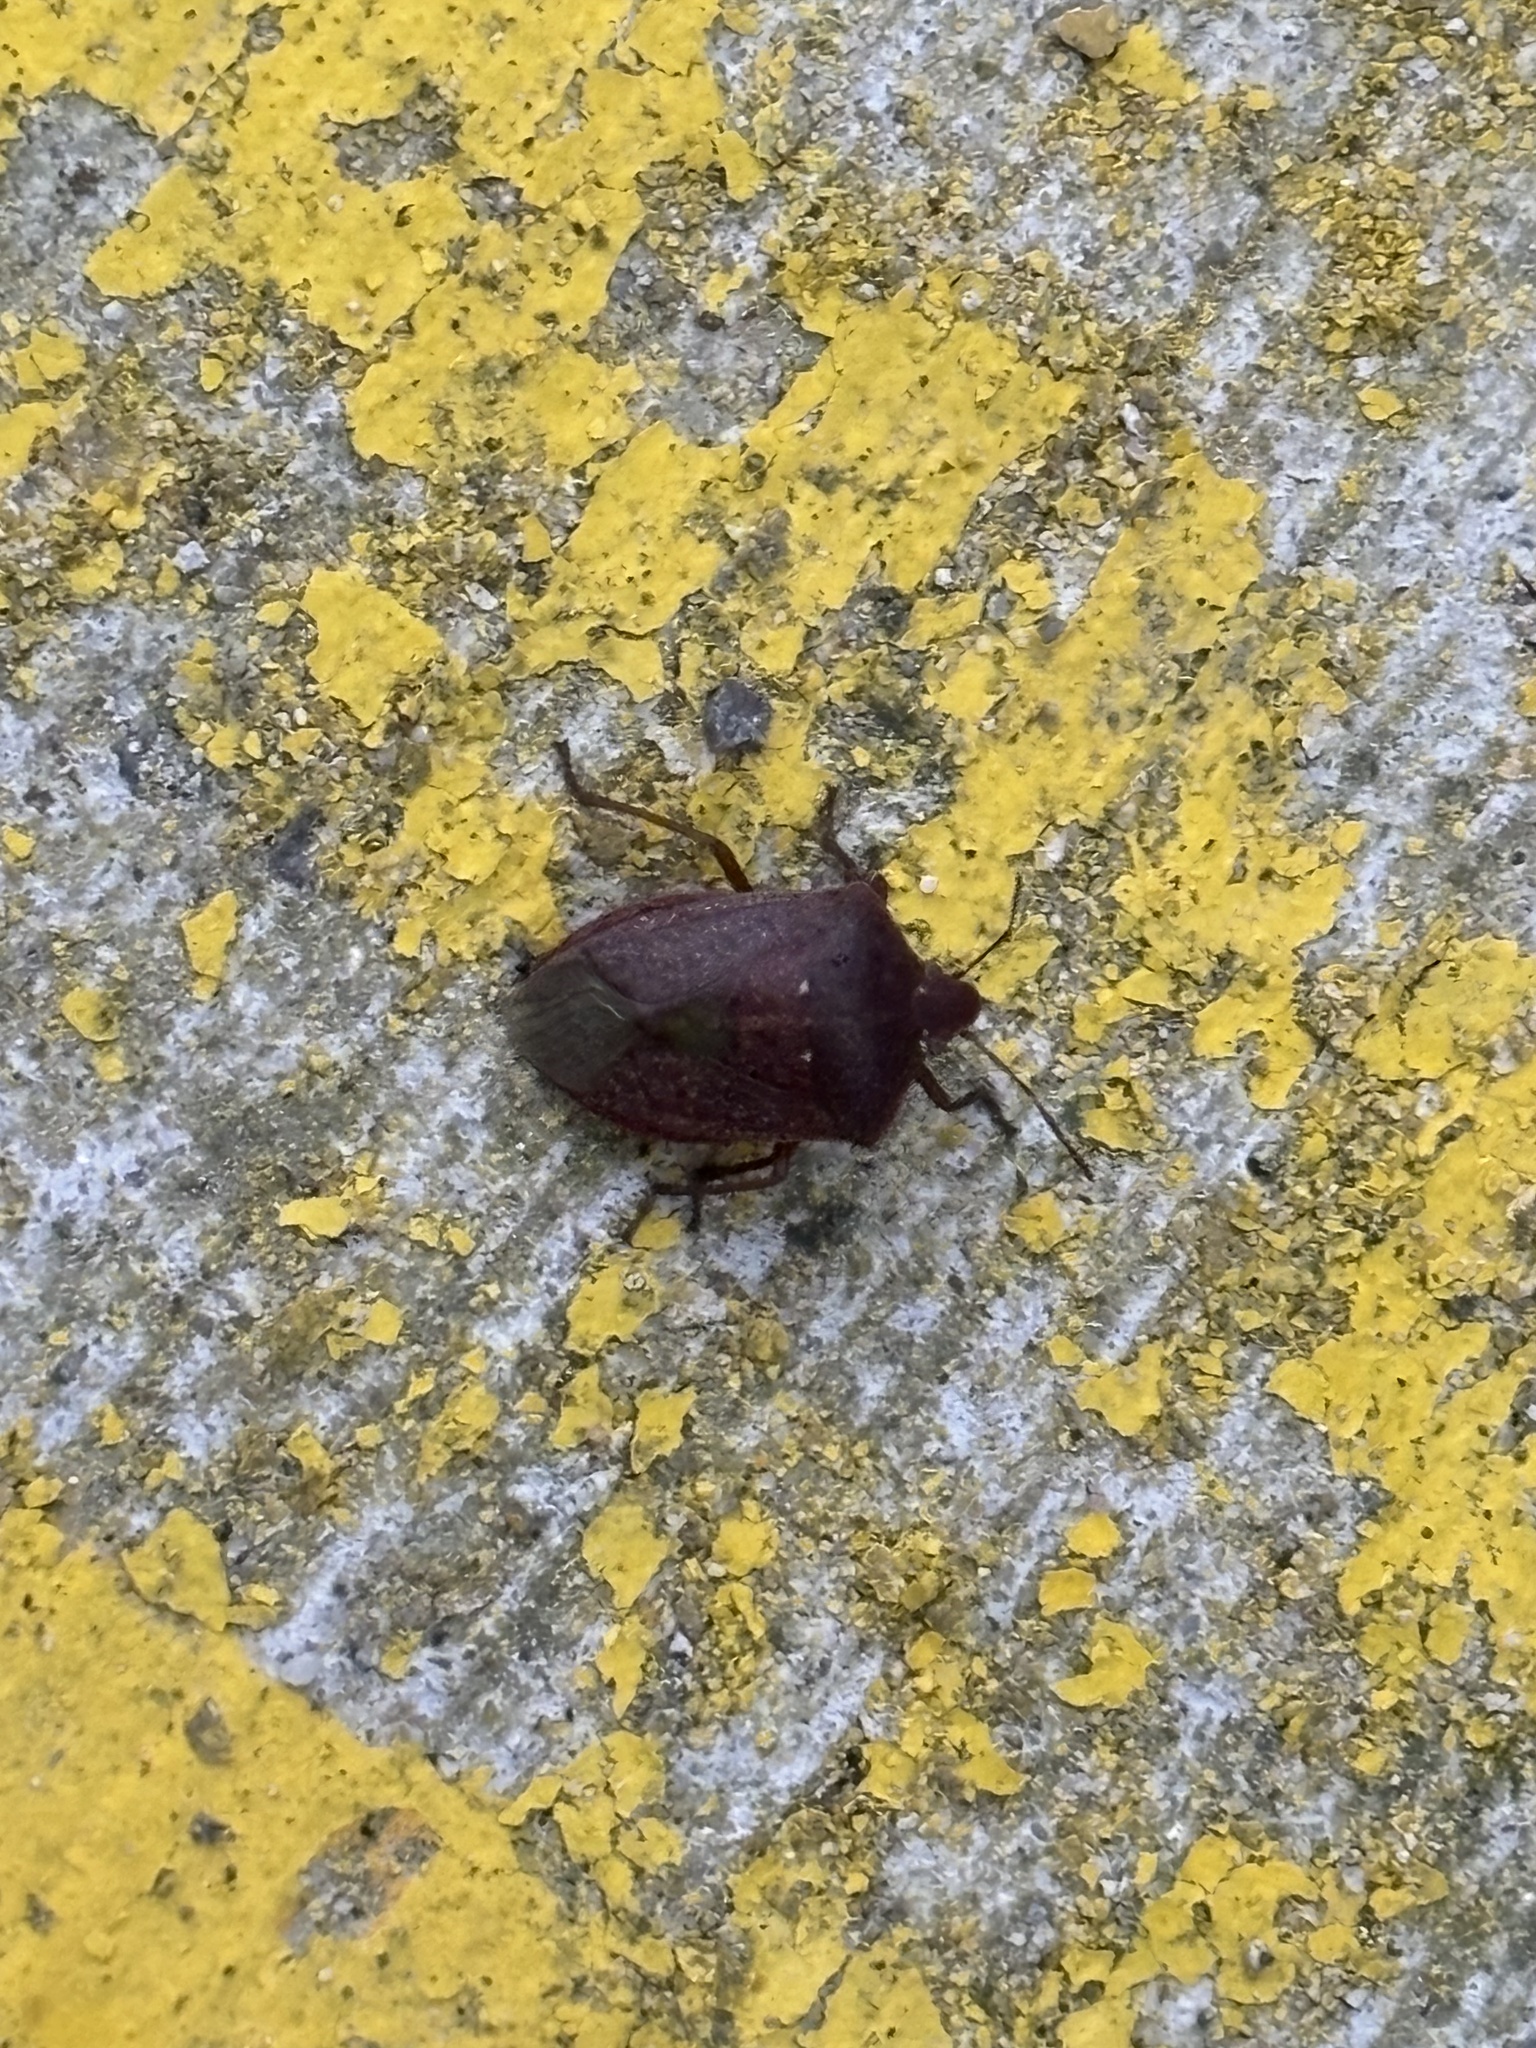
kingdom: Animalia
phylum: Arthropoda
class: Insecta
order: Hemiptera
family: Pentatomidae
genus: Nezara
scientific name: Nezara viridula
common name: Southern green stink bug
